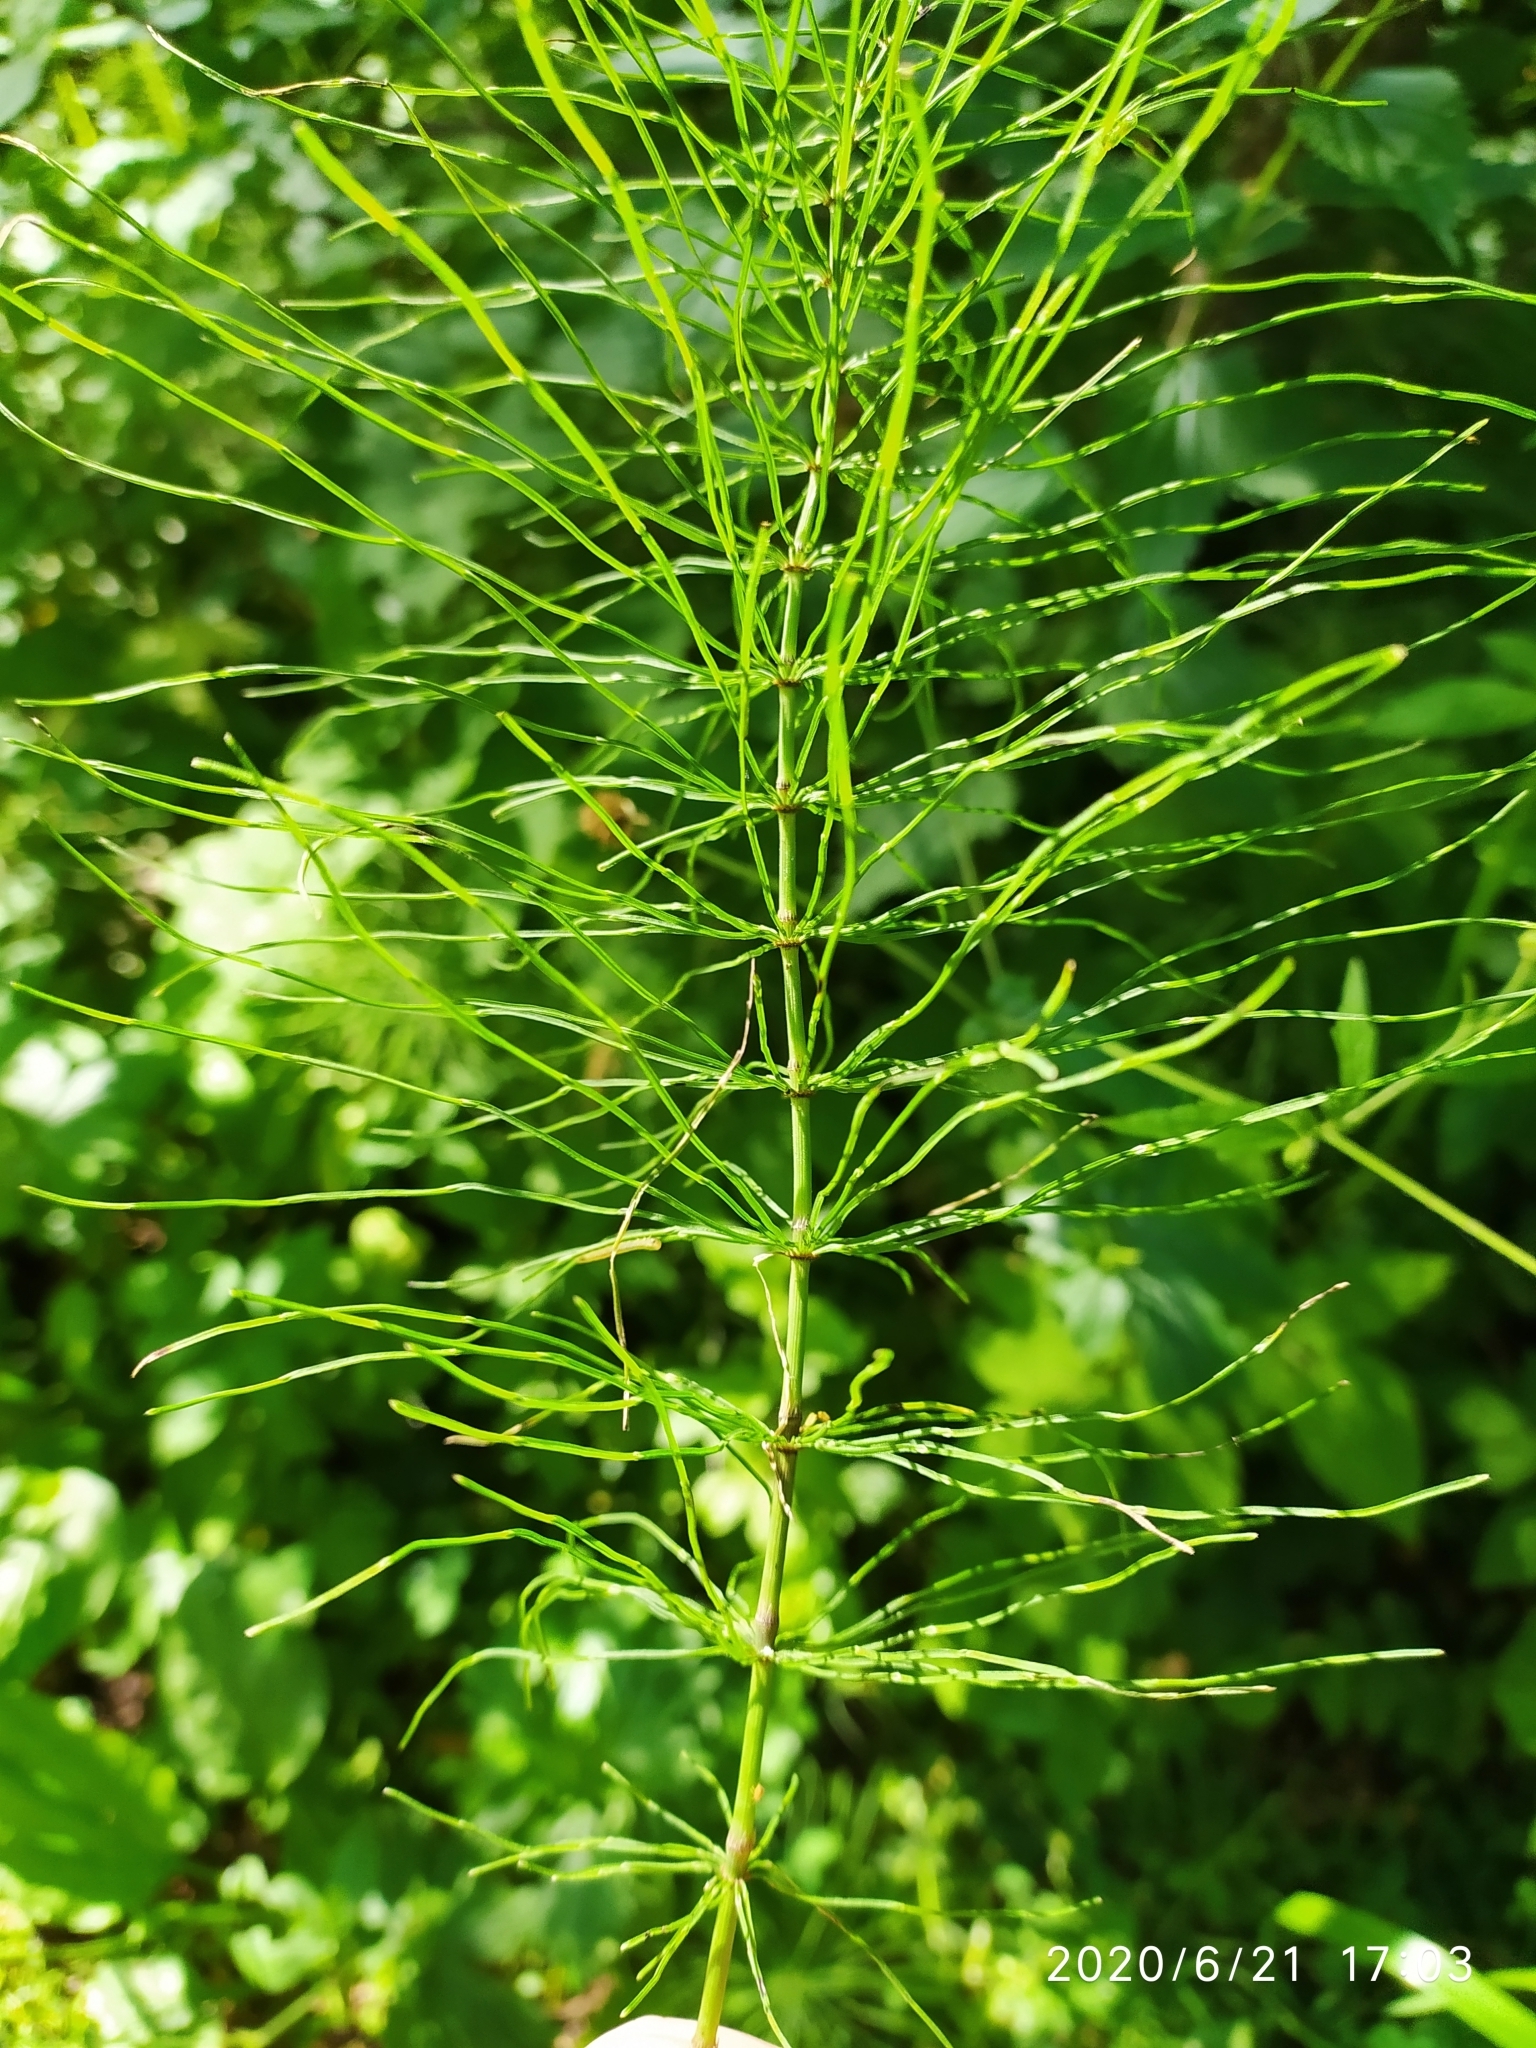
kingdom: Plantae
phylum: Tracheophyta
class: Polypodiopsida
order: Equisetales
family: Equisetaceae
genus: Equisetum
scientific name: Equisetum pratense
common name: Meadow horsetail
